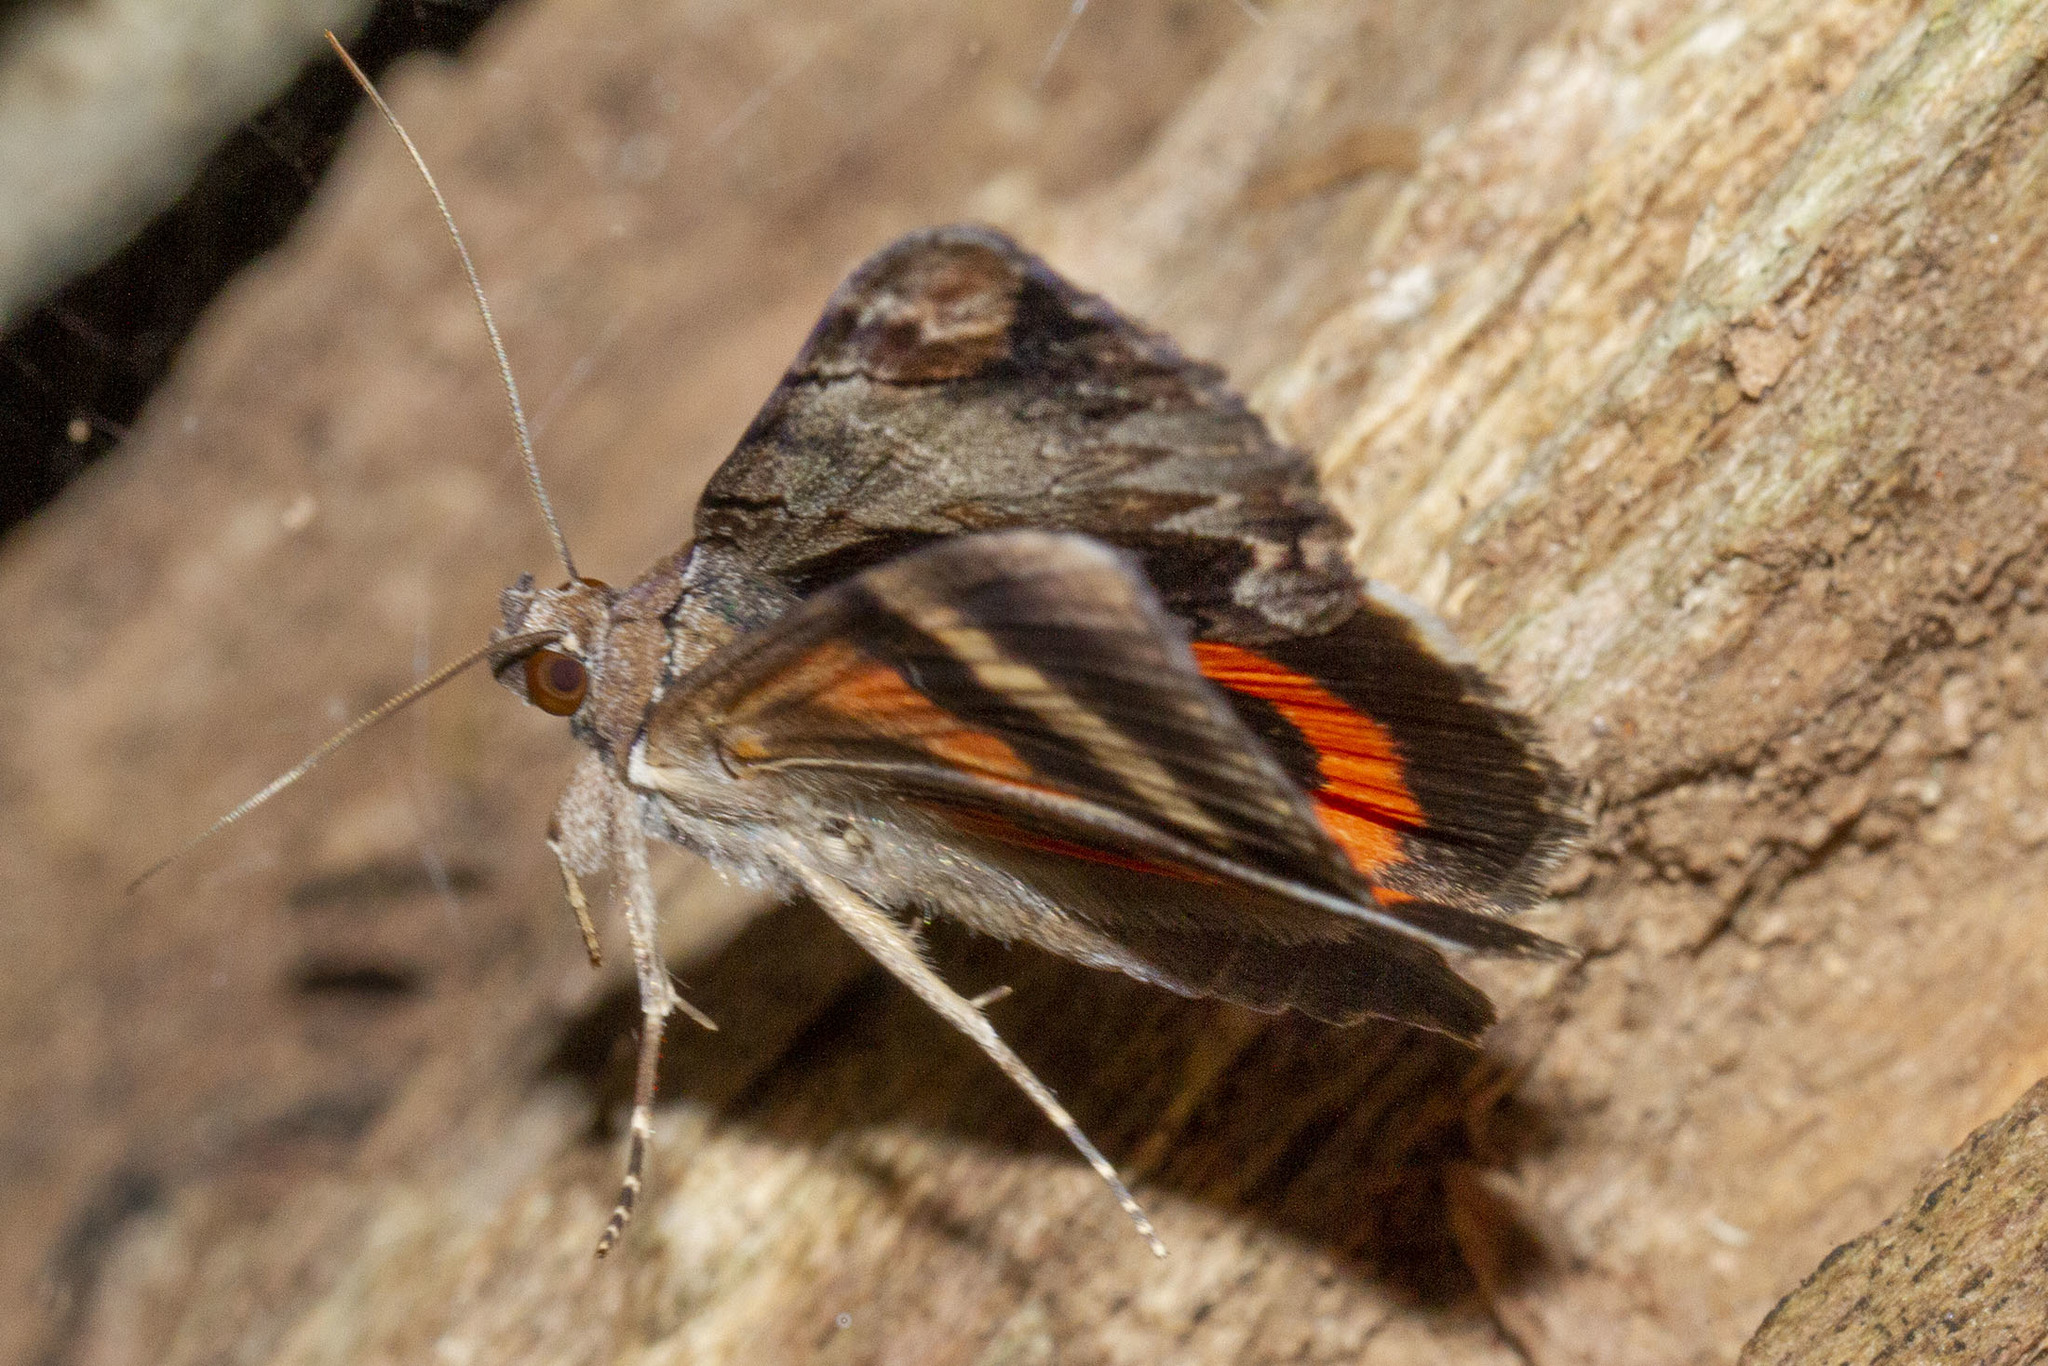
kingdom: Animalia
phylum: Arthropoda
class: Insecta
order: Lepidoptera
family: Erebidae
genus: Catocala
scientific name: Catocala ultronia
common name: Ultronia underwing
